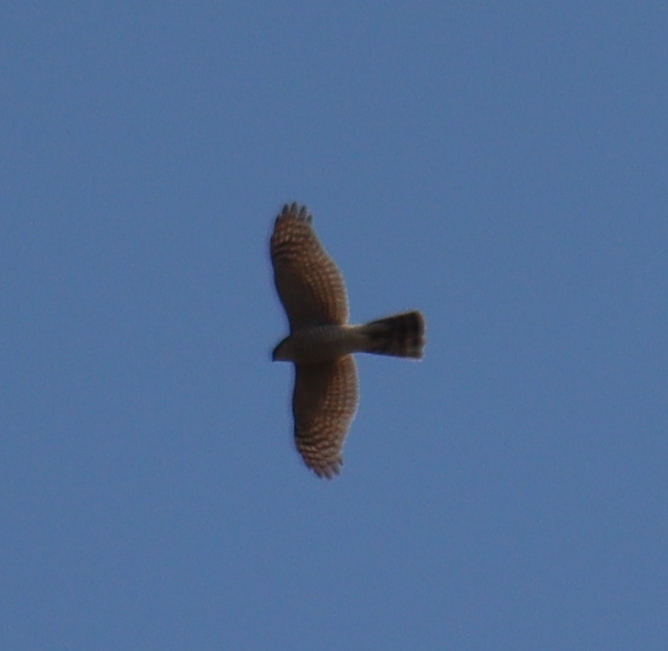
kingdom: Animalia
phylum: Chordata
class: Aves
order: Accipitriformes
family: Accipitridae
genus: Accipiter
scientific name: Accipiter nisus
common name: Eurasian sparrowhawk
